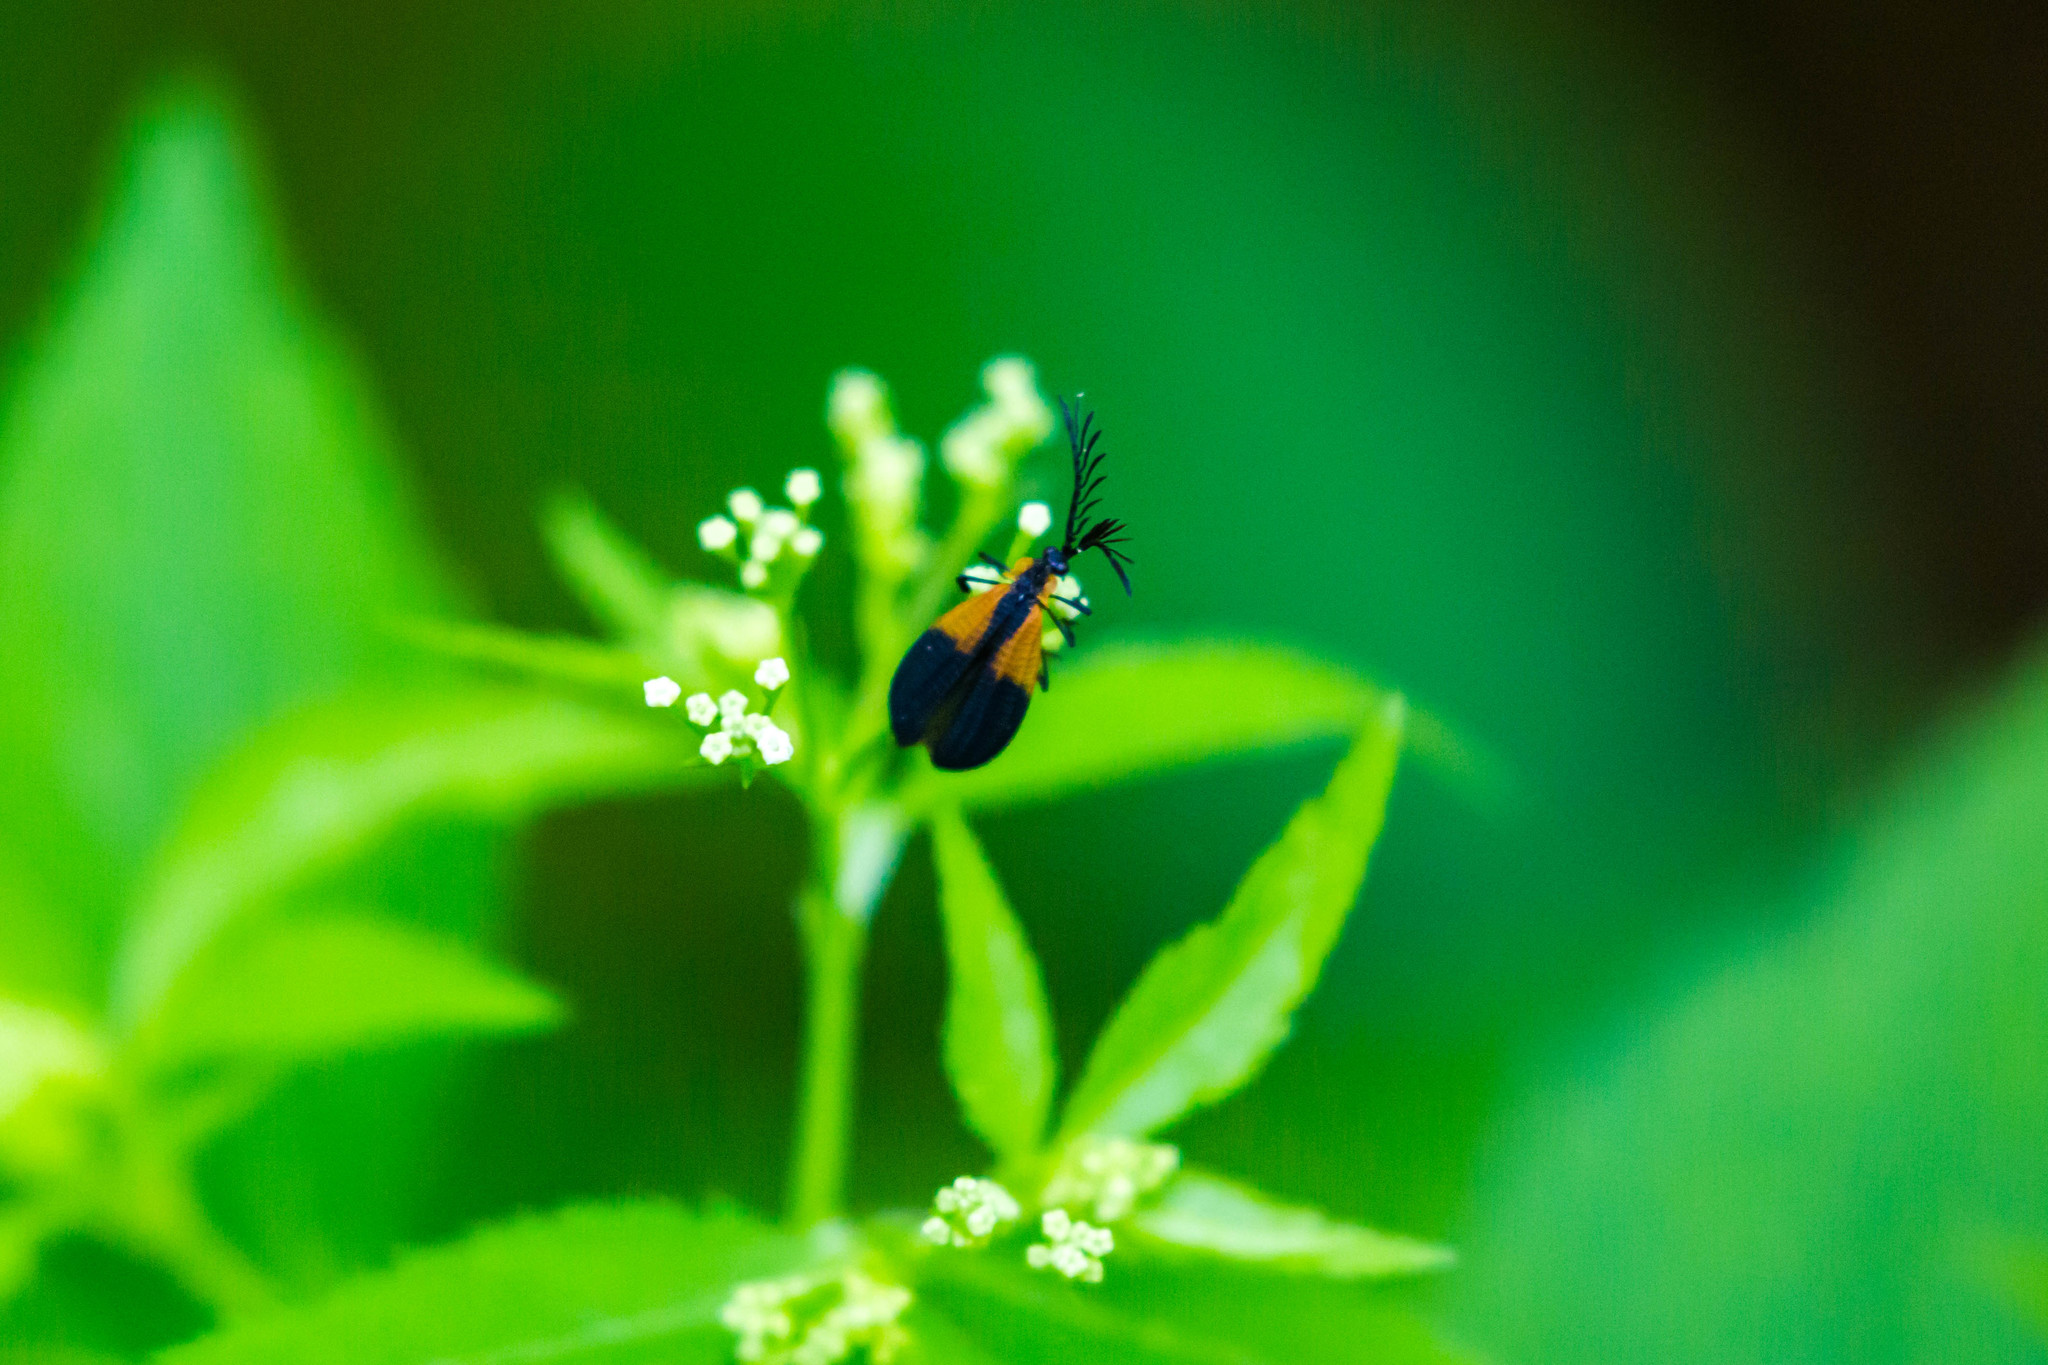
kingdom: Animalia
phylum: Arthropoda
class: Insecta
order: Coleoptera
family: Lycidae
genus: Caenia
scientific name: Caenia dimidiata
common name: Terminal net-winged beetle
